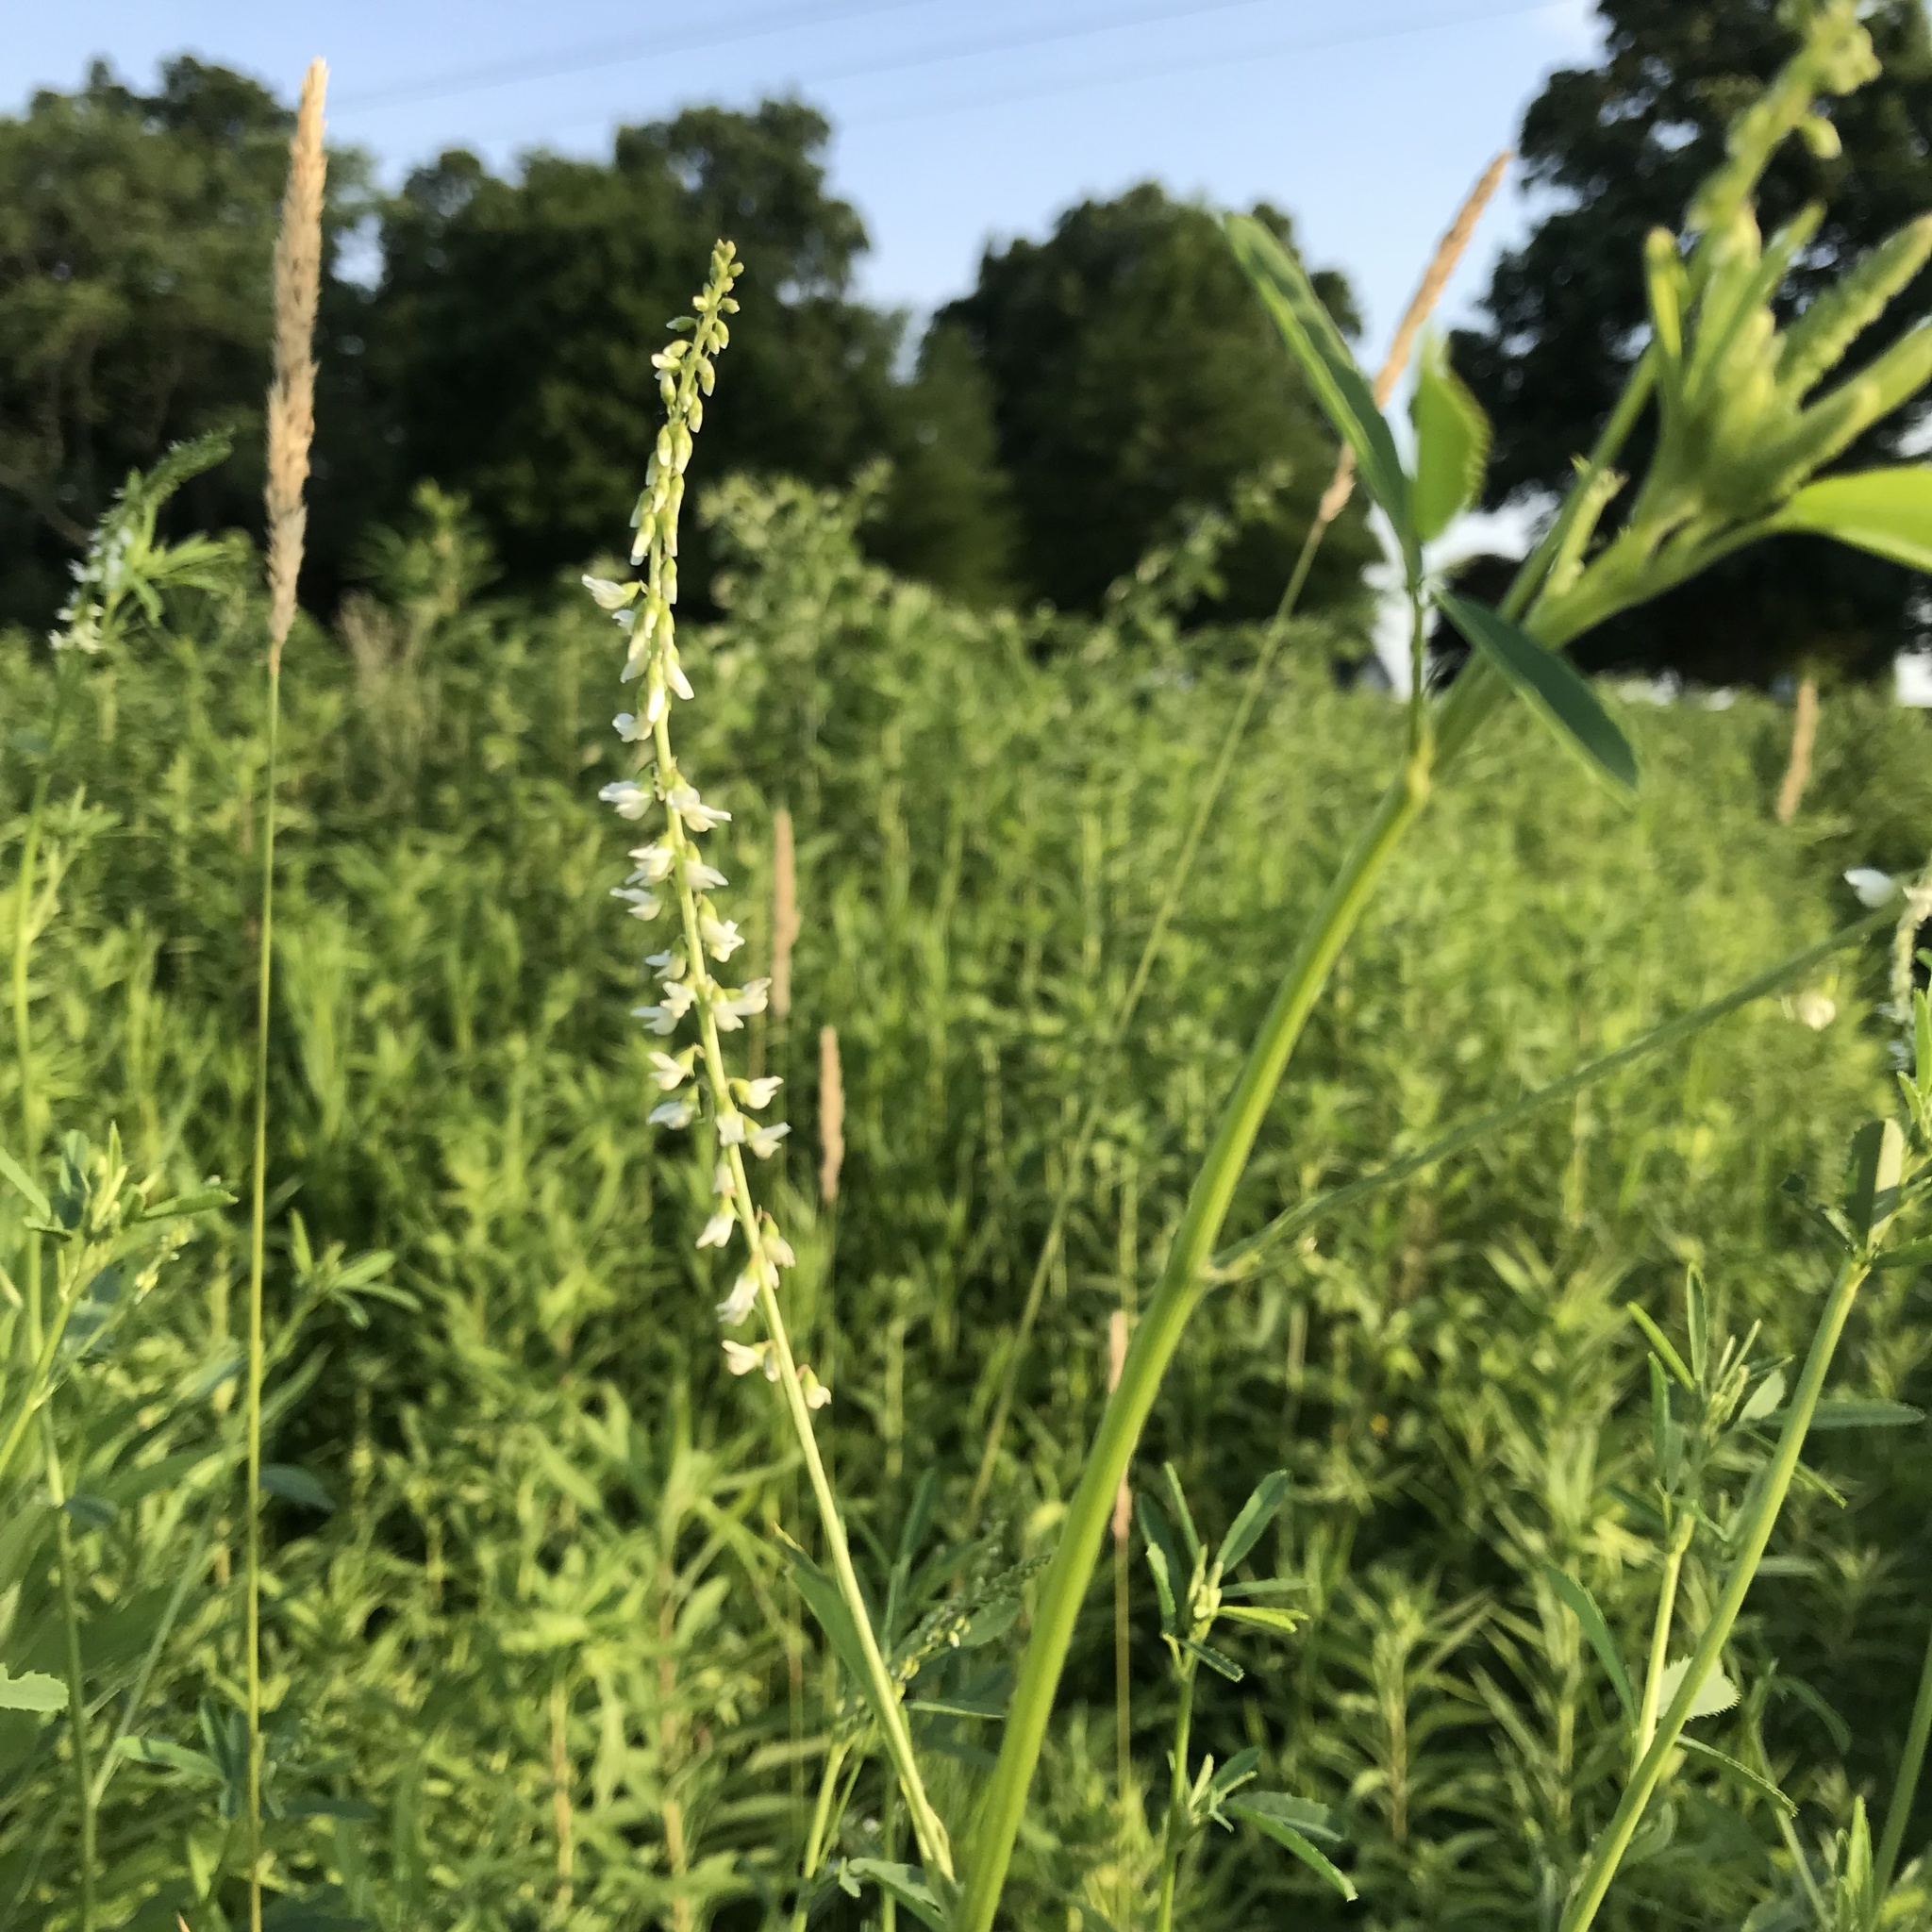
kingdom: Plantae
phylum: Tracheophyta
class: Magnoliopsida
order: Fabales
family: Fabaceae
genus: Melilotus
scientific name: Melilotus albus
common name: White melilot
